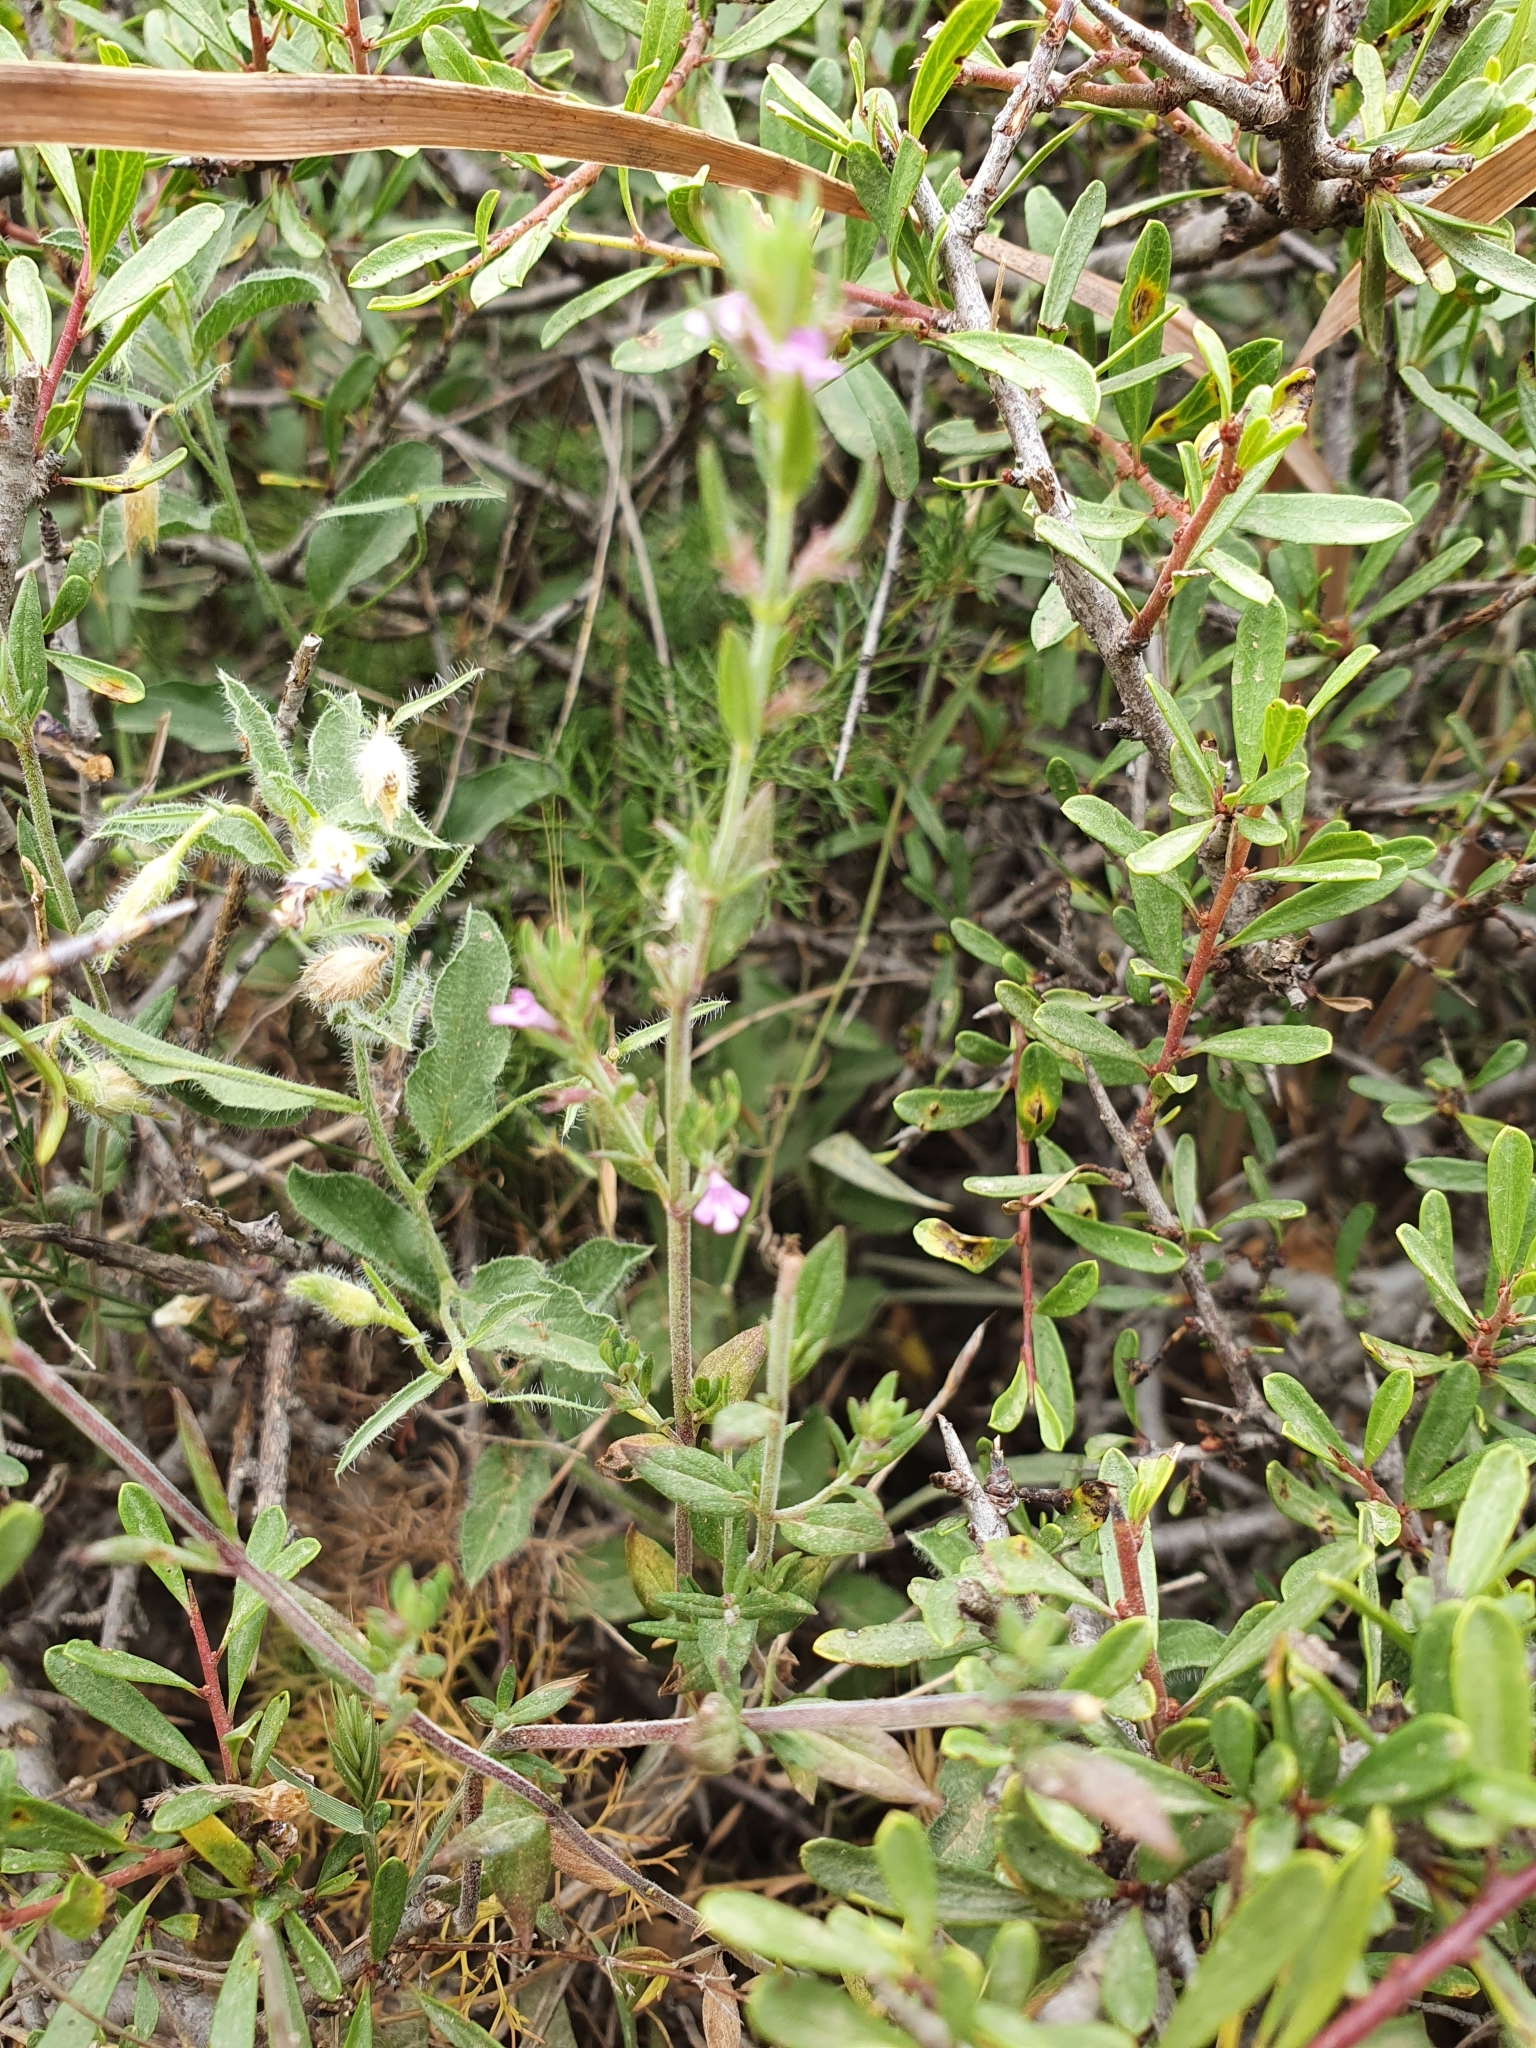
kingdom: Plantae
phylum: Tracheophyta
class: Magnoliopsida
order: Lamiales
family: Lamiaceae
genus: Micromeria
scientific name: Micromeria graeca
